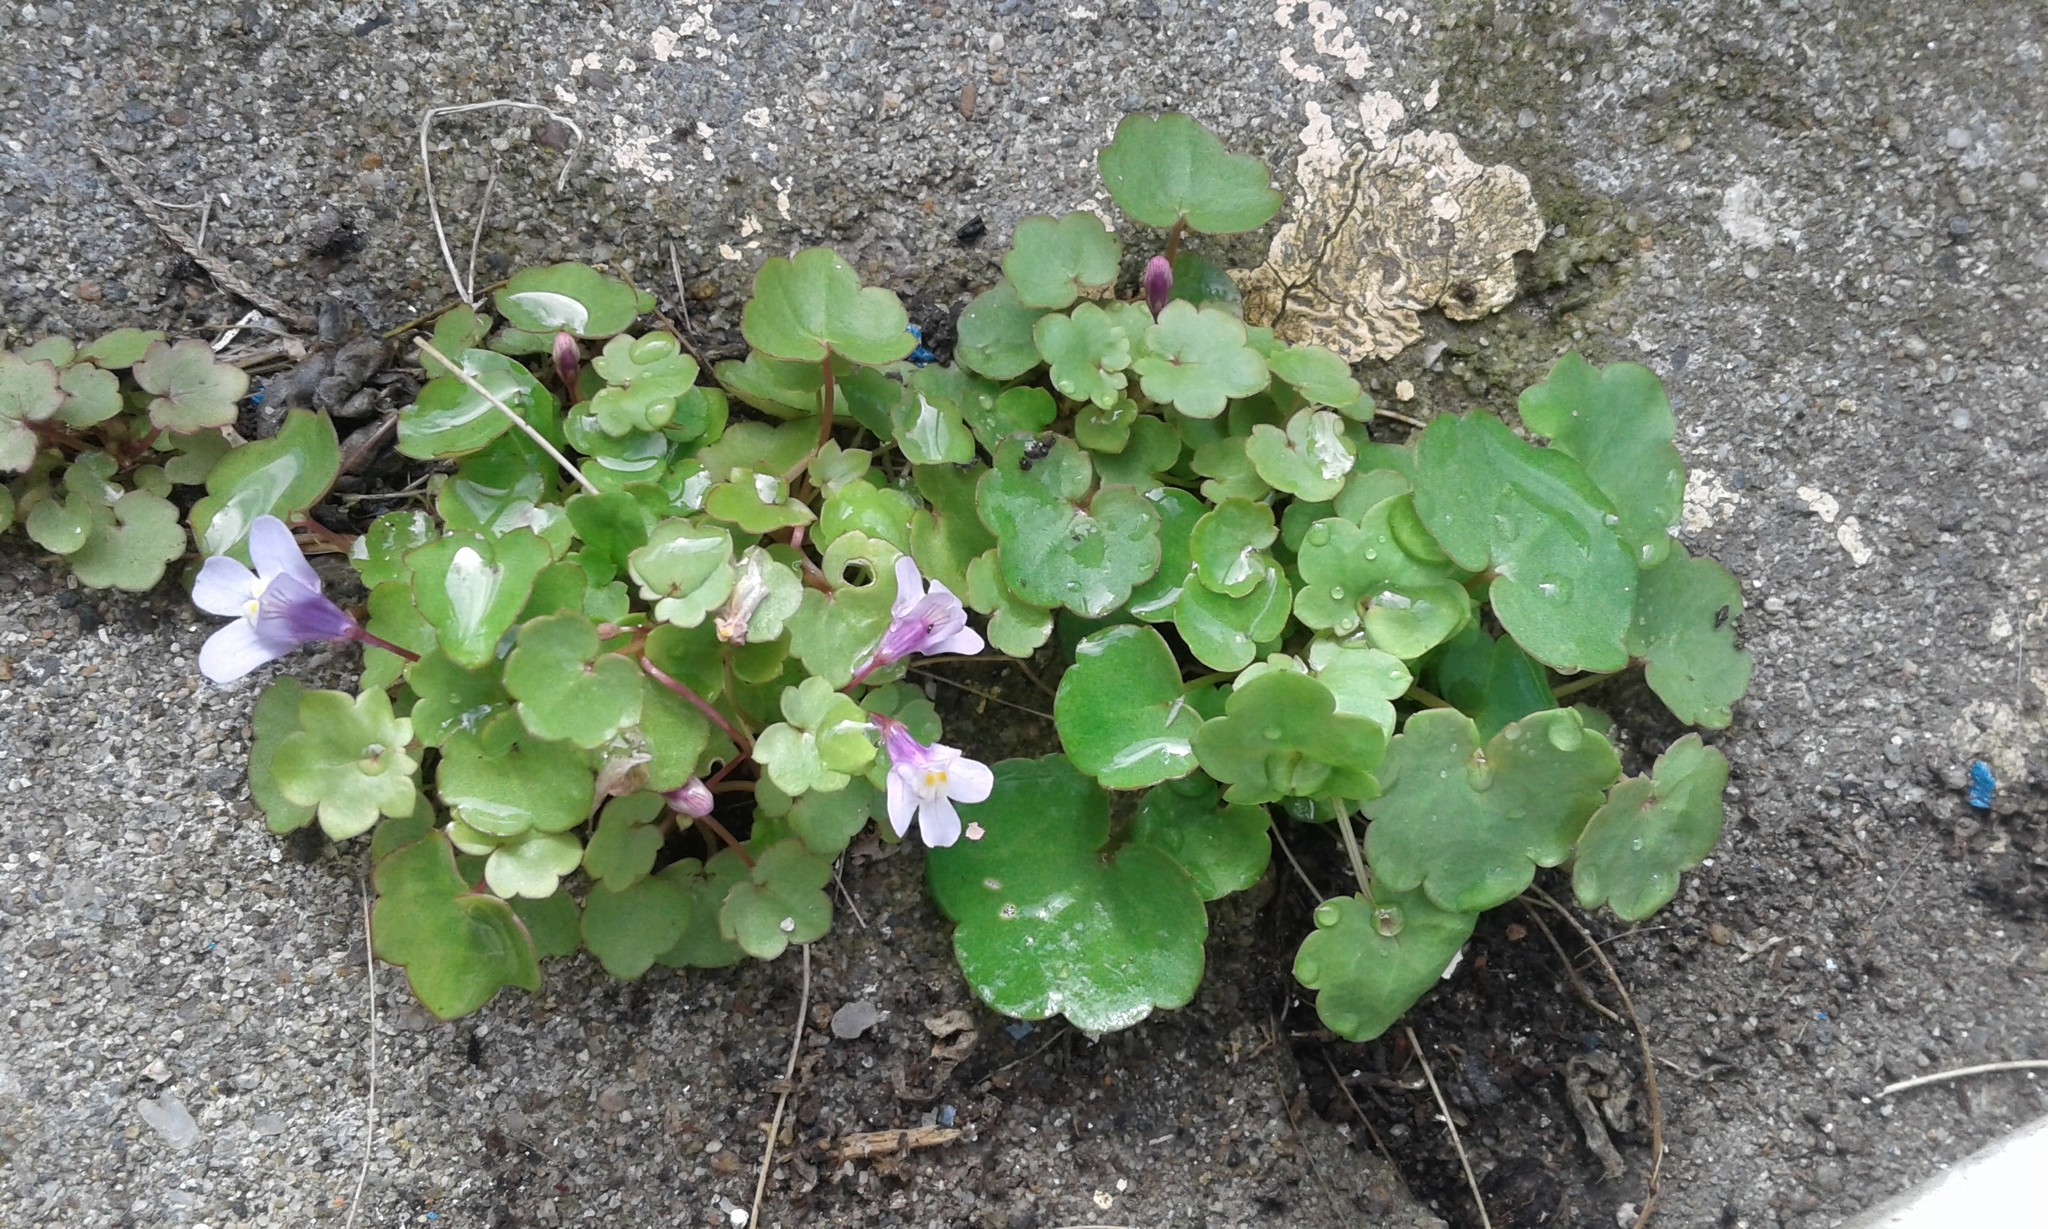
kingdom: Plantae
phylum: Tracheophyta
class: Magnoliopsida
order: Lamiales
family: Plantaginaceae
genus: Cymbalaria
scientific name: Cymbalaria muralis
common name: Ivy-leaved toadflax
